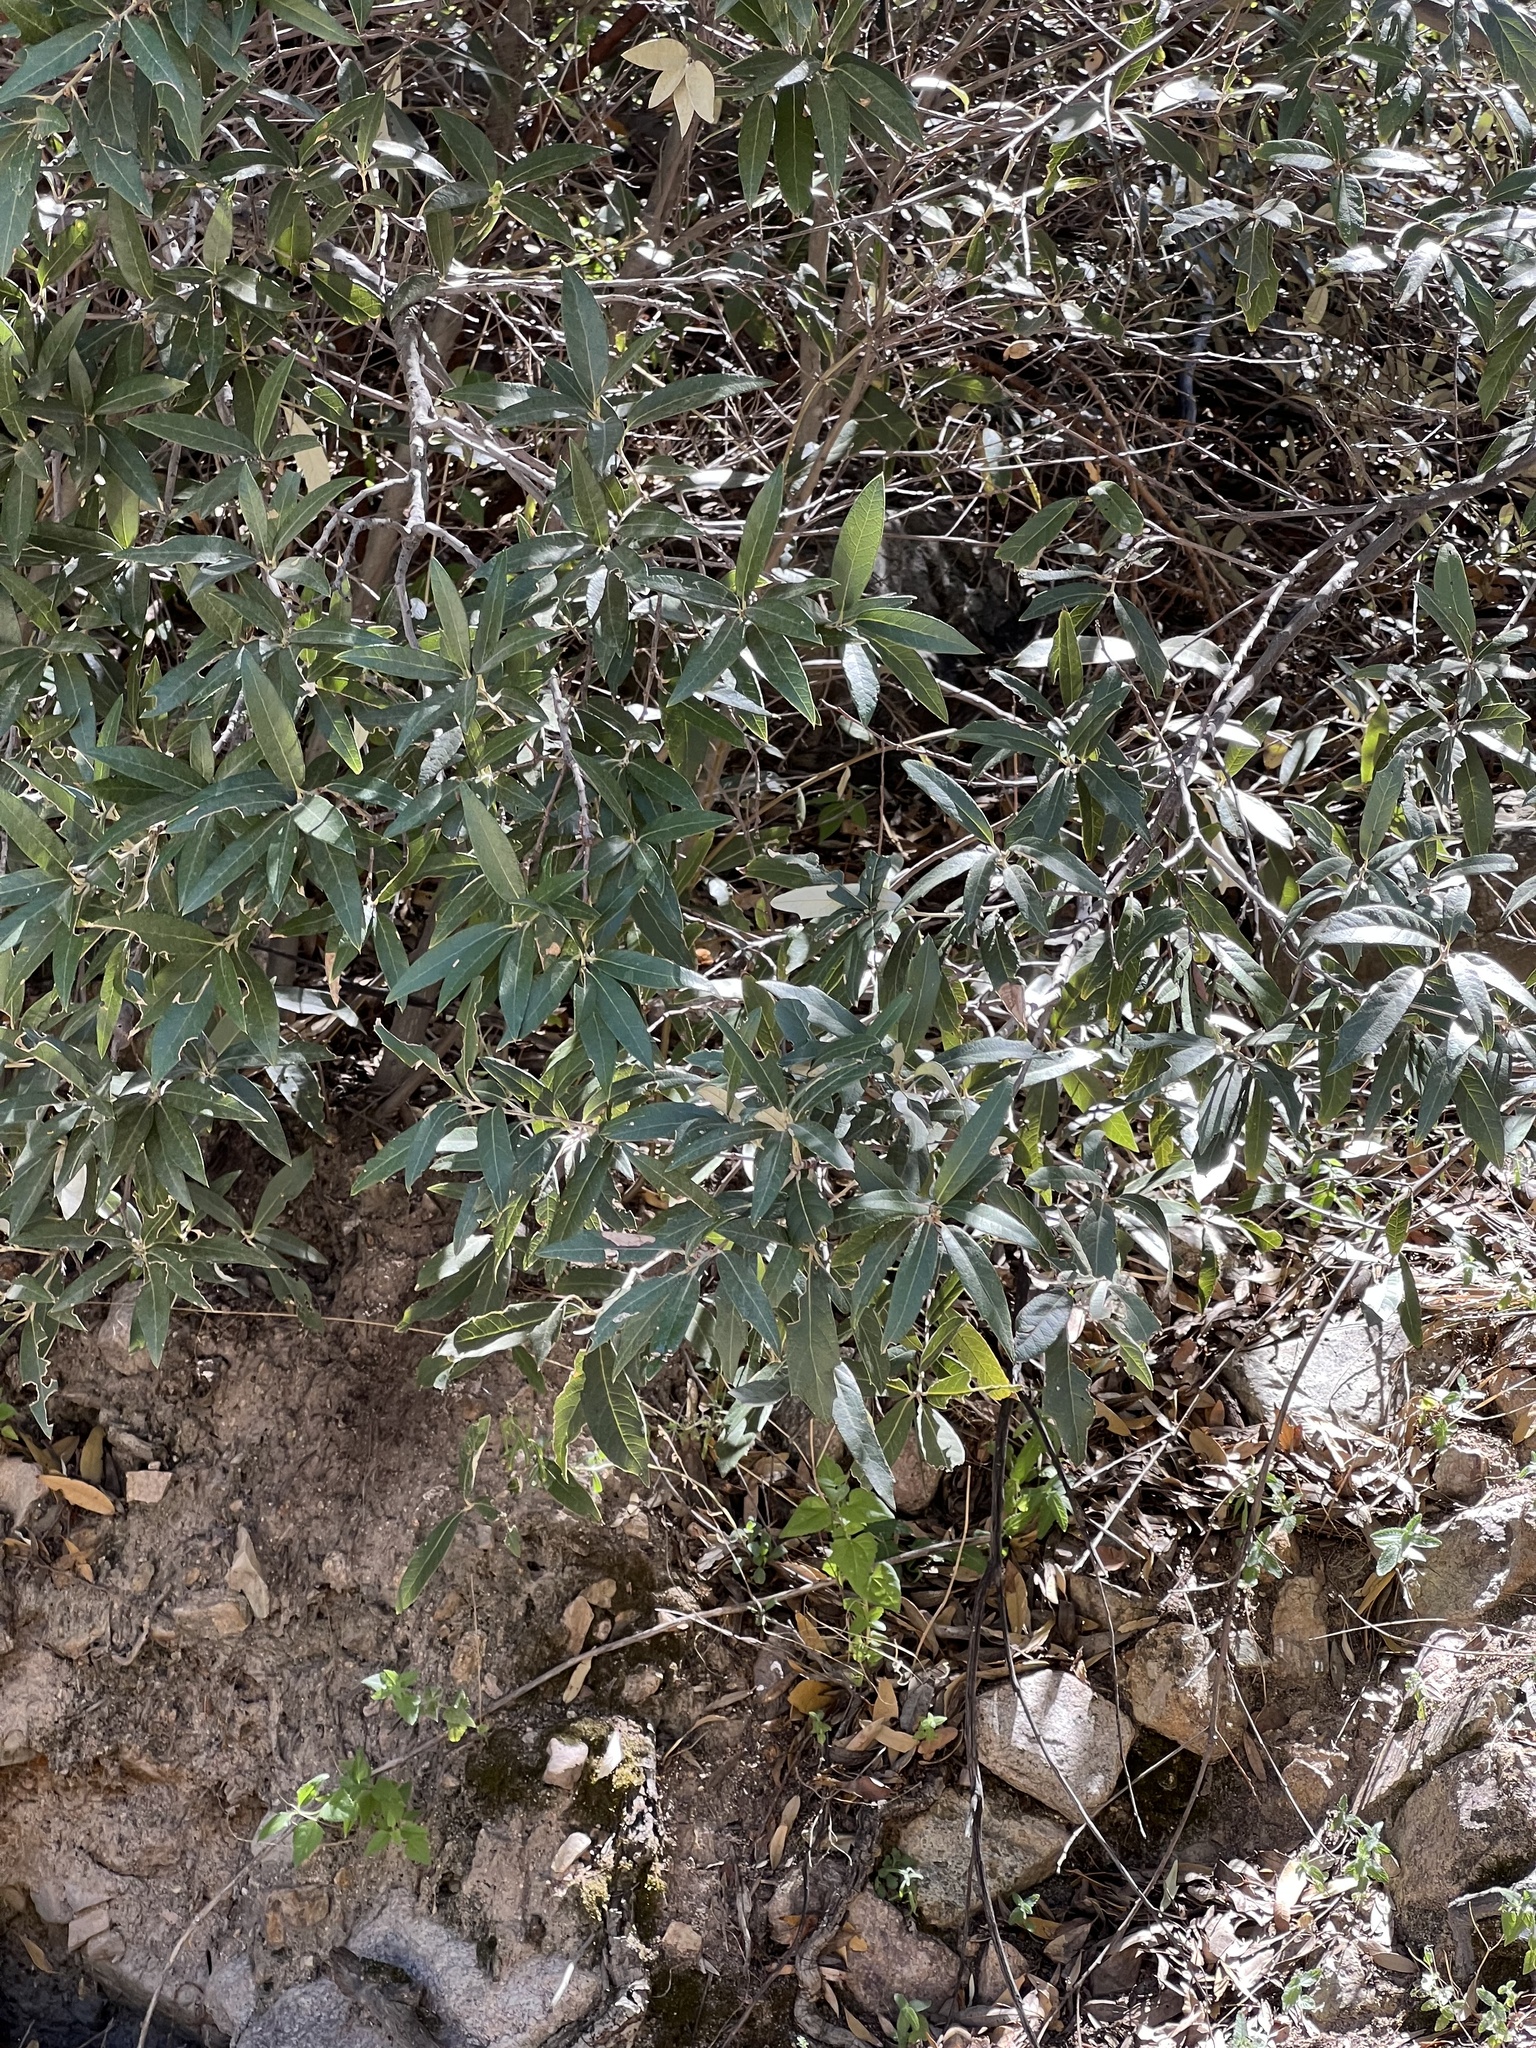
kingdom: Plantae
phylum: Tracheophyta
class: Magnoliopsida
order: Fagales
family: Fagaceae
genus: Quercus
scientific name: Quercus hypoleucoides
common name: Silverleaf oak
